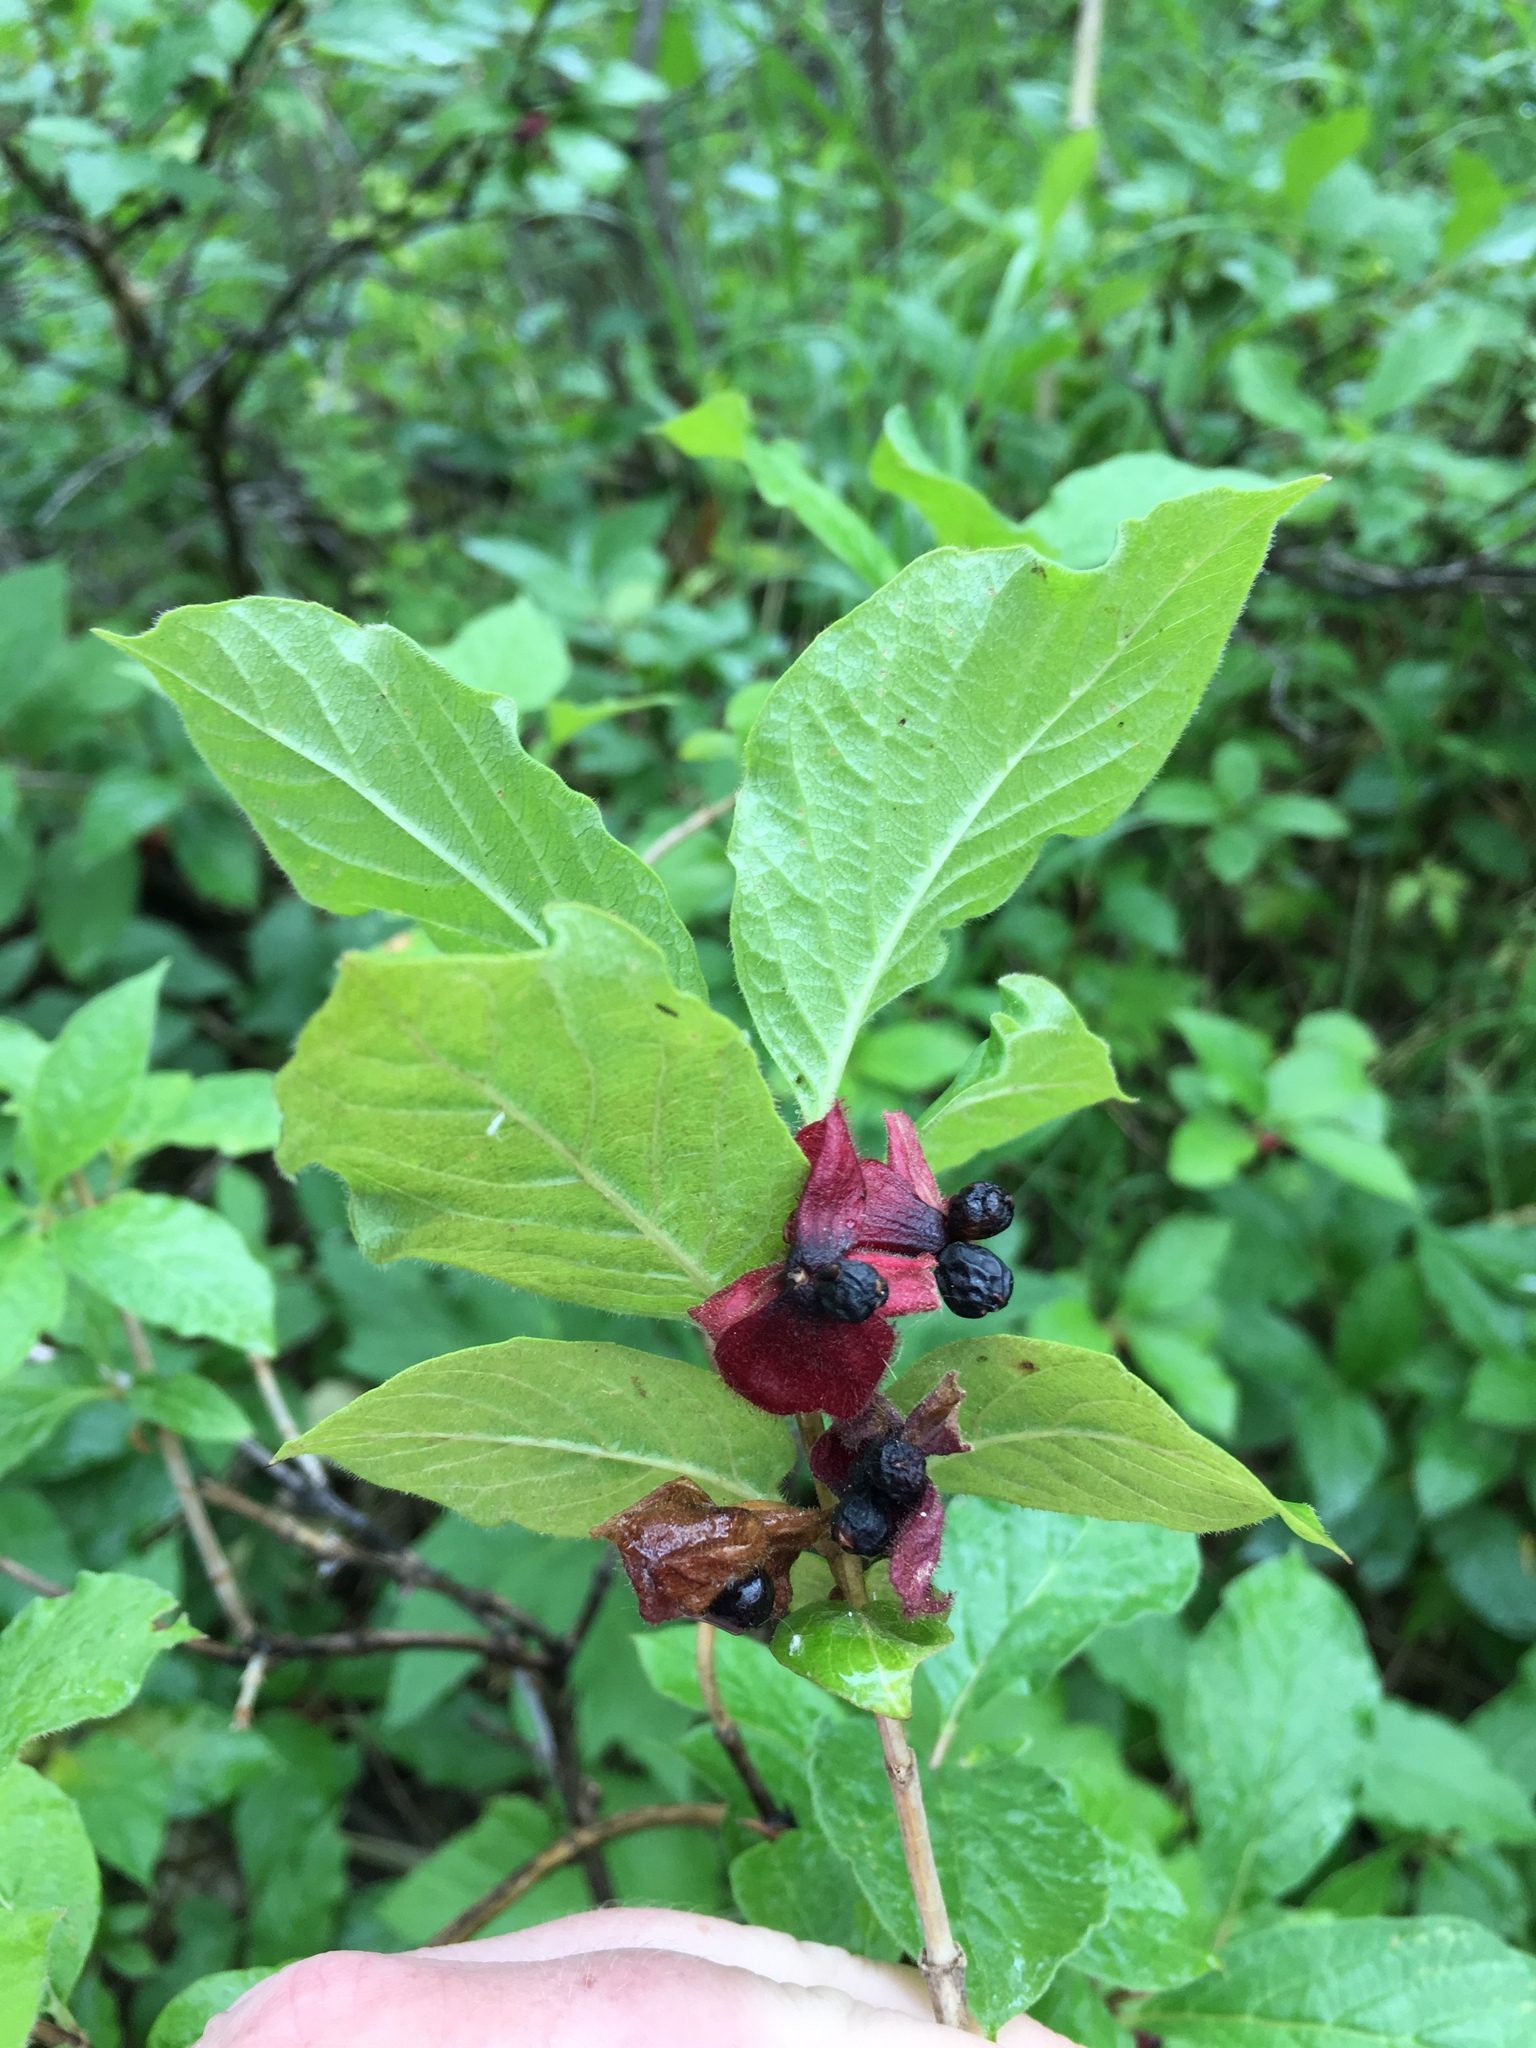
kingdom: Plantae
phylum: Tracheophyta
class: Magnoliopsida
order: Dipsacales
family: Caprifoliaceae
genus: Lonicera
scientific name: Lonicera involucrata
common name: Californian honeysuckle
